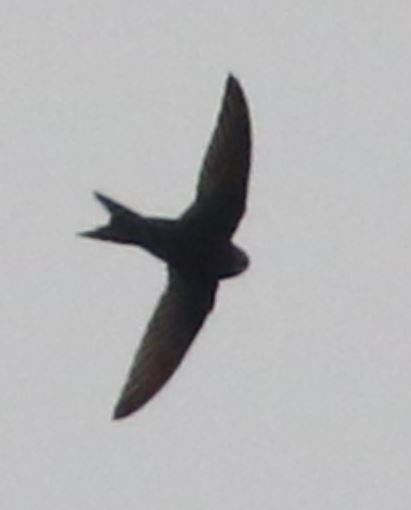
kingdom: Animalia
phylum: Chordata
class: Aves
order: Apodiformes
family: Apodidae
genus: Apus
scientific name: Apus apus
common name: Common swift
